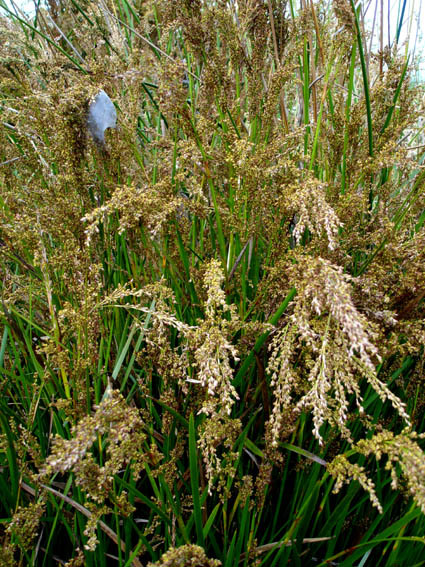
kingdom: Plantae
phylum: Tracheophyta
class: Liliopsida
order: Poales
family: Cyperaceae
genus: Machaerina
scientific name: Machaerina complanata
